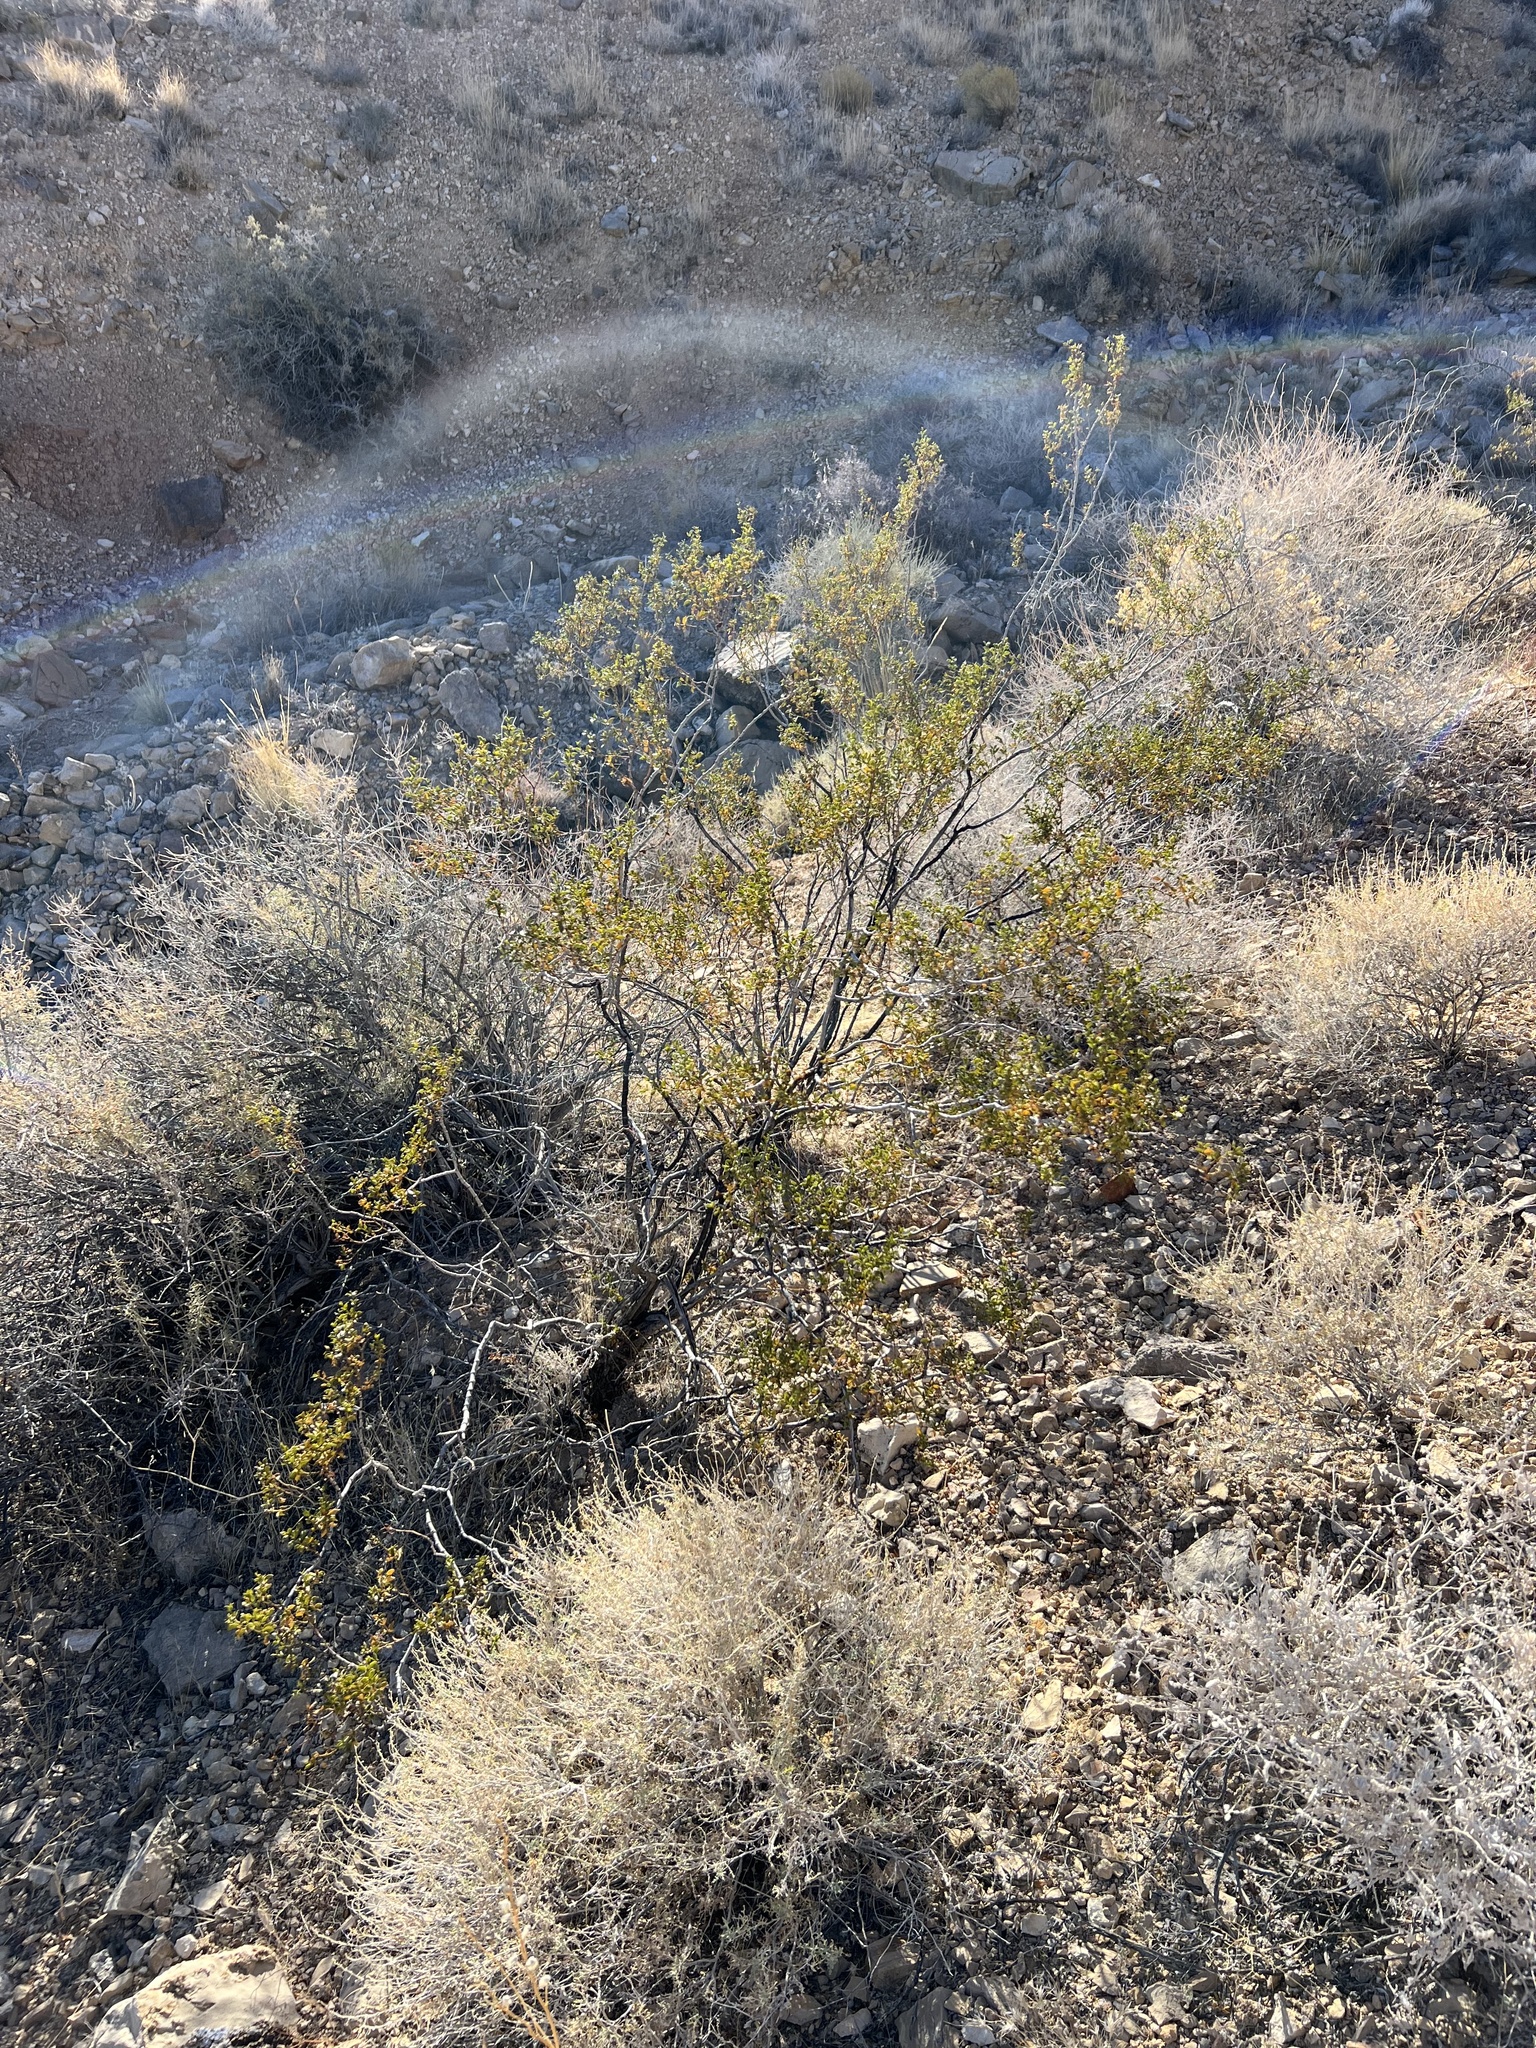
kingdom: Plantae
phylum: Tracheophyta
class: Magnoliopsida
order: Zygophyllales
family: Zygophyllaceae
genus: Larrea
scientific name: Larrea tridentata
